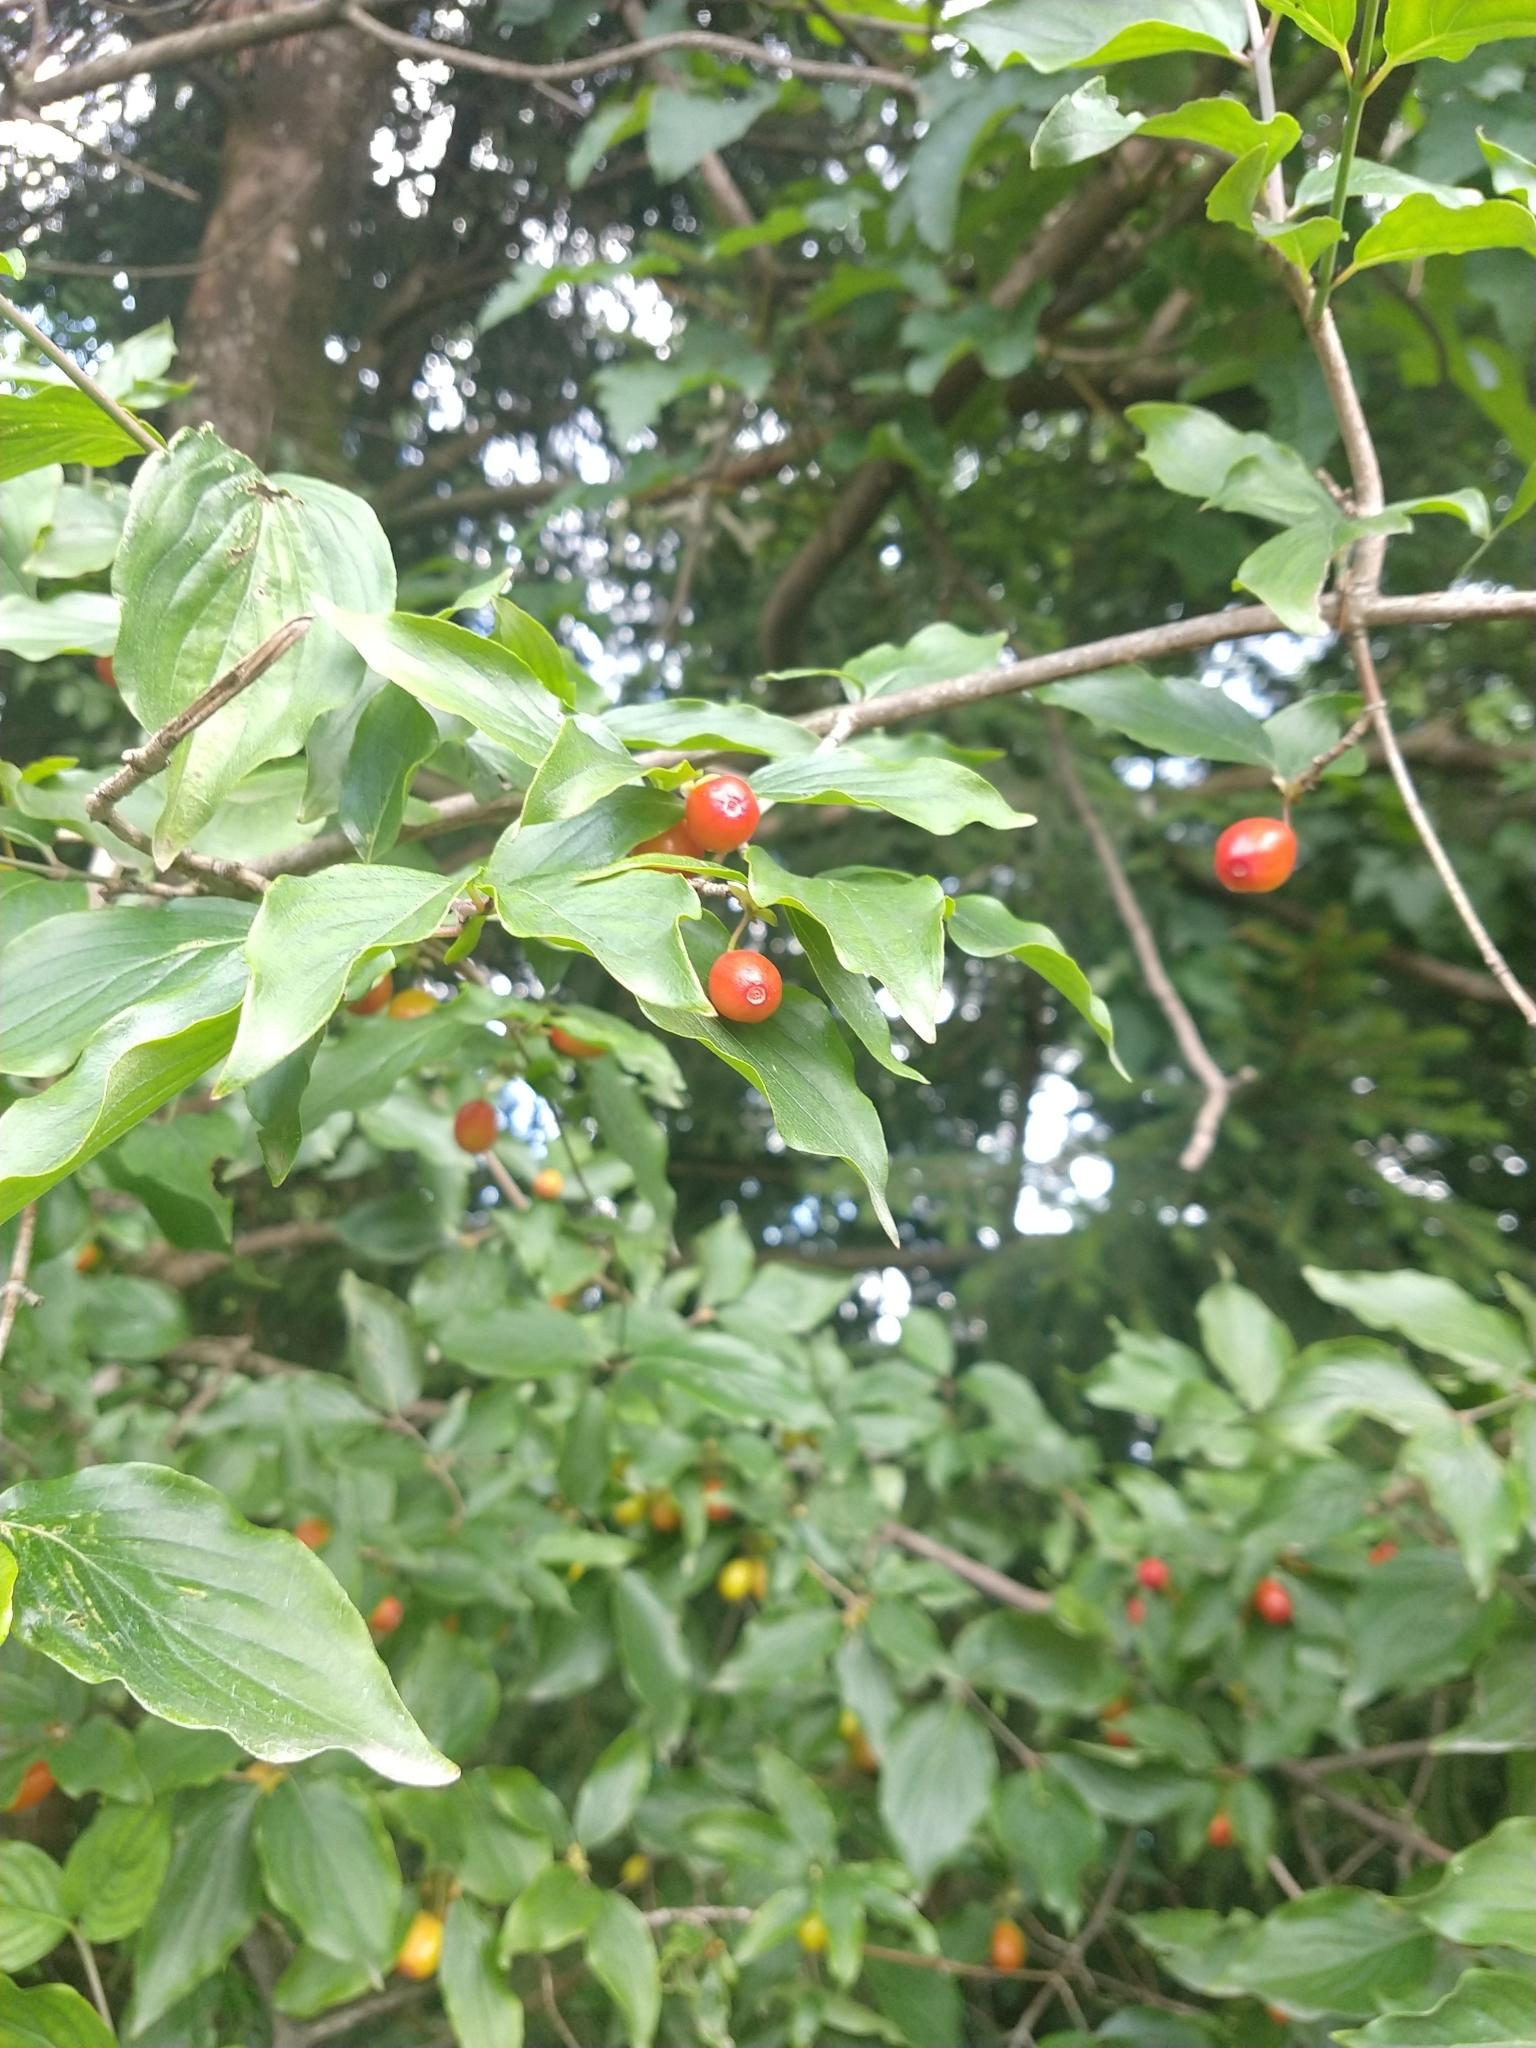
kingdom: Plantae
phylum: Tracheophyta
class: Magnoliopsida
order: Cornales
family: Cornaceae
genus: Cornus
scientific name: Cornus mas
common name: Cornelian-cherry
